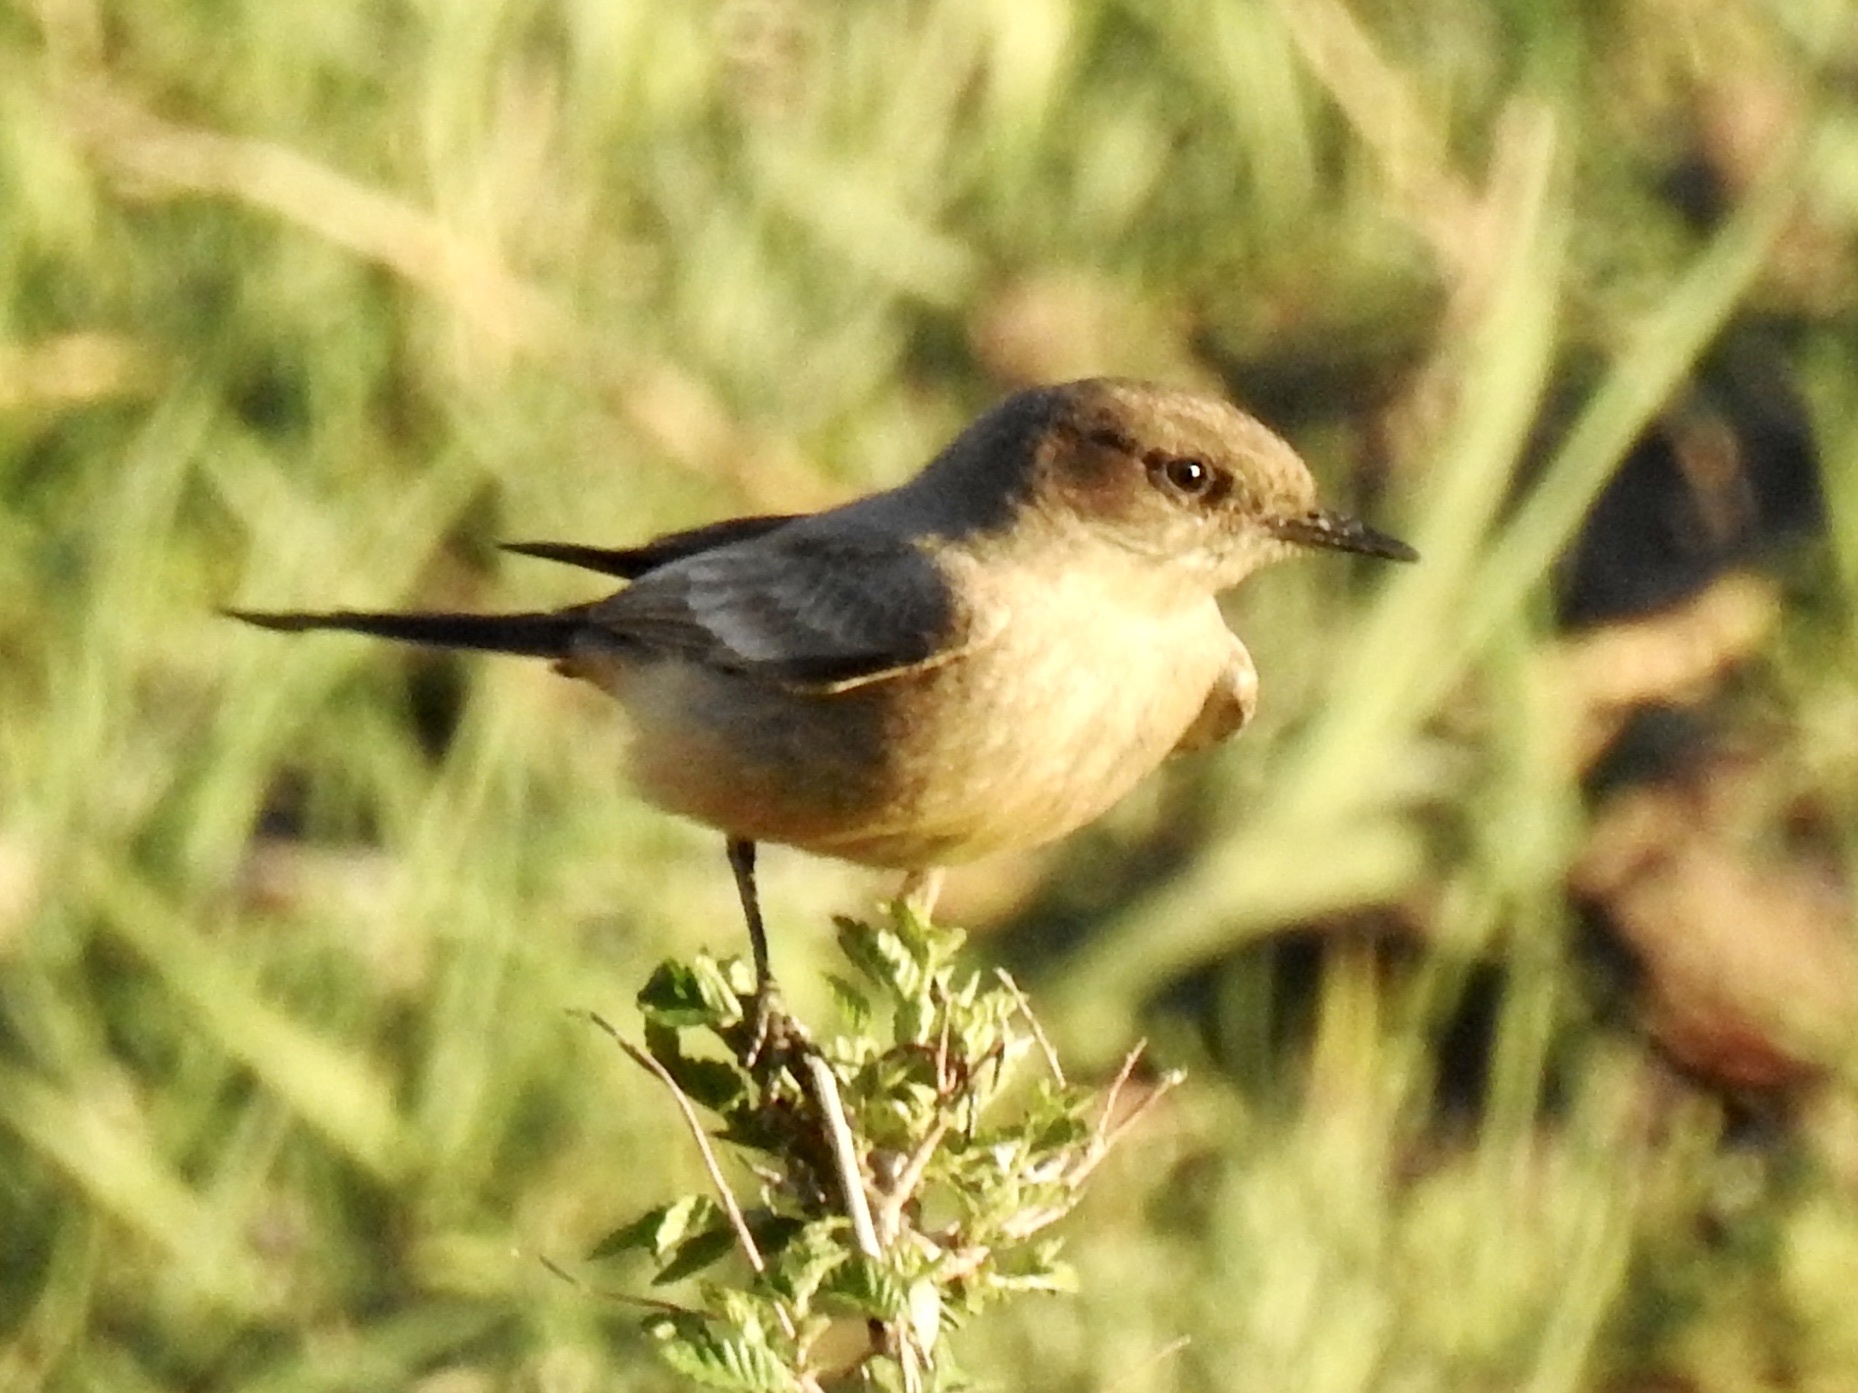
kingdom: Animalia
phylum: Chordata
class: Aves
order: Passeriformes
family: Tyrannidae
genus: Sayornis
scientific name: Sayornis saya
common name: Say's phoebe
